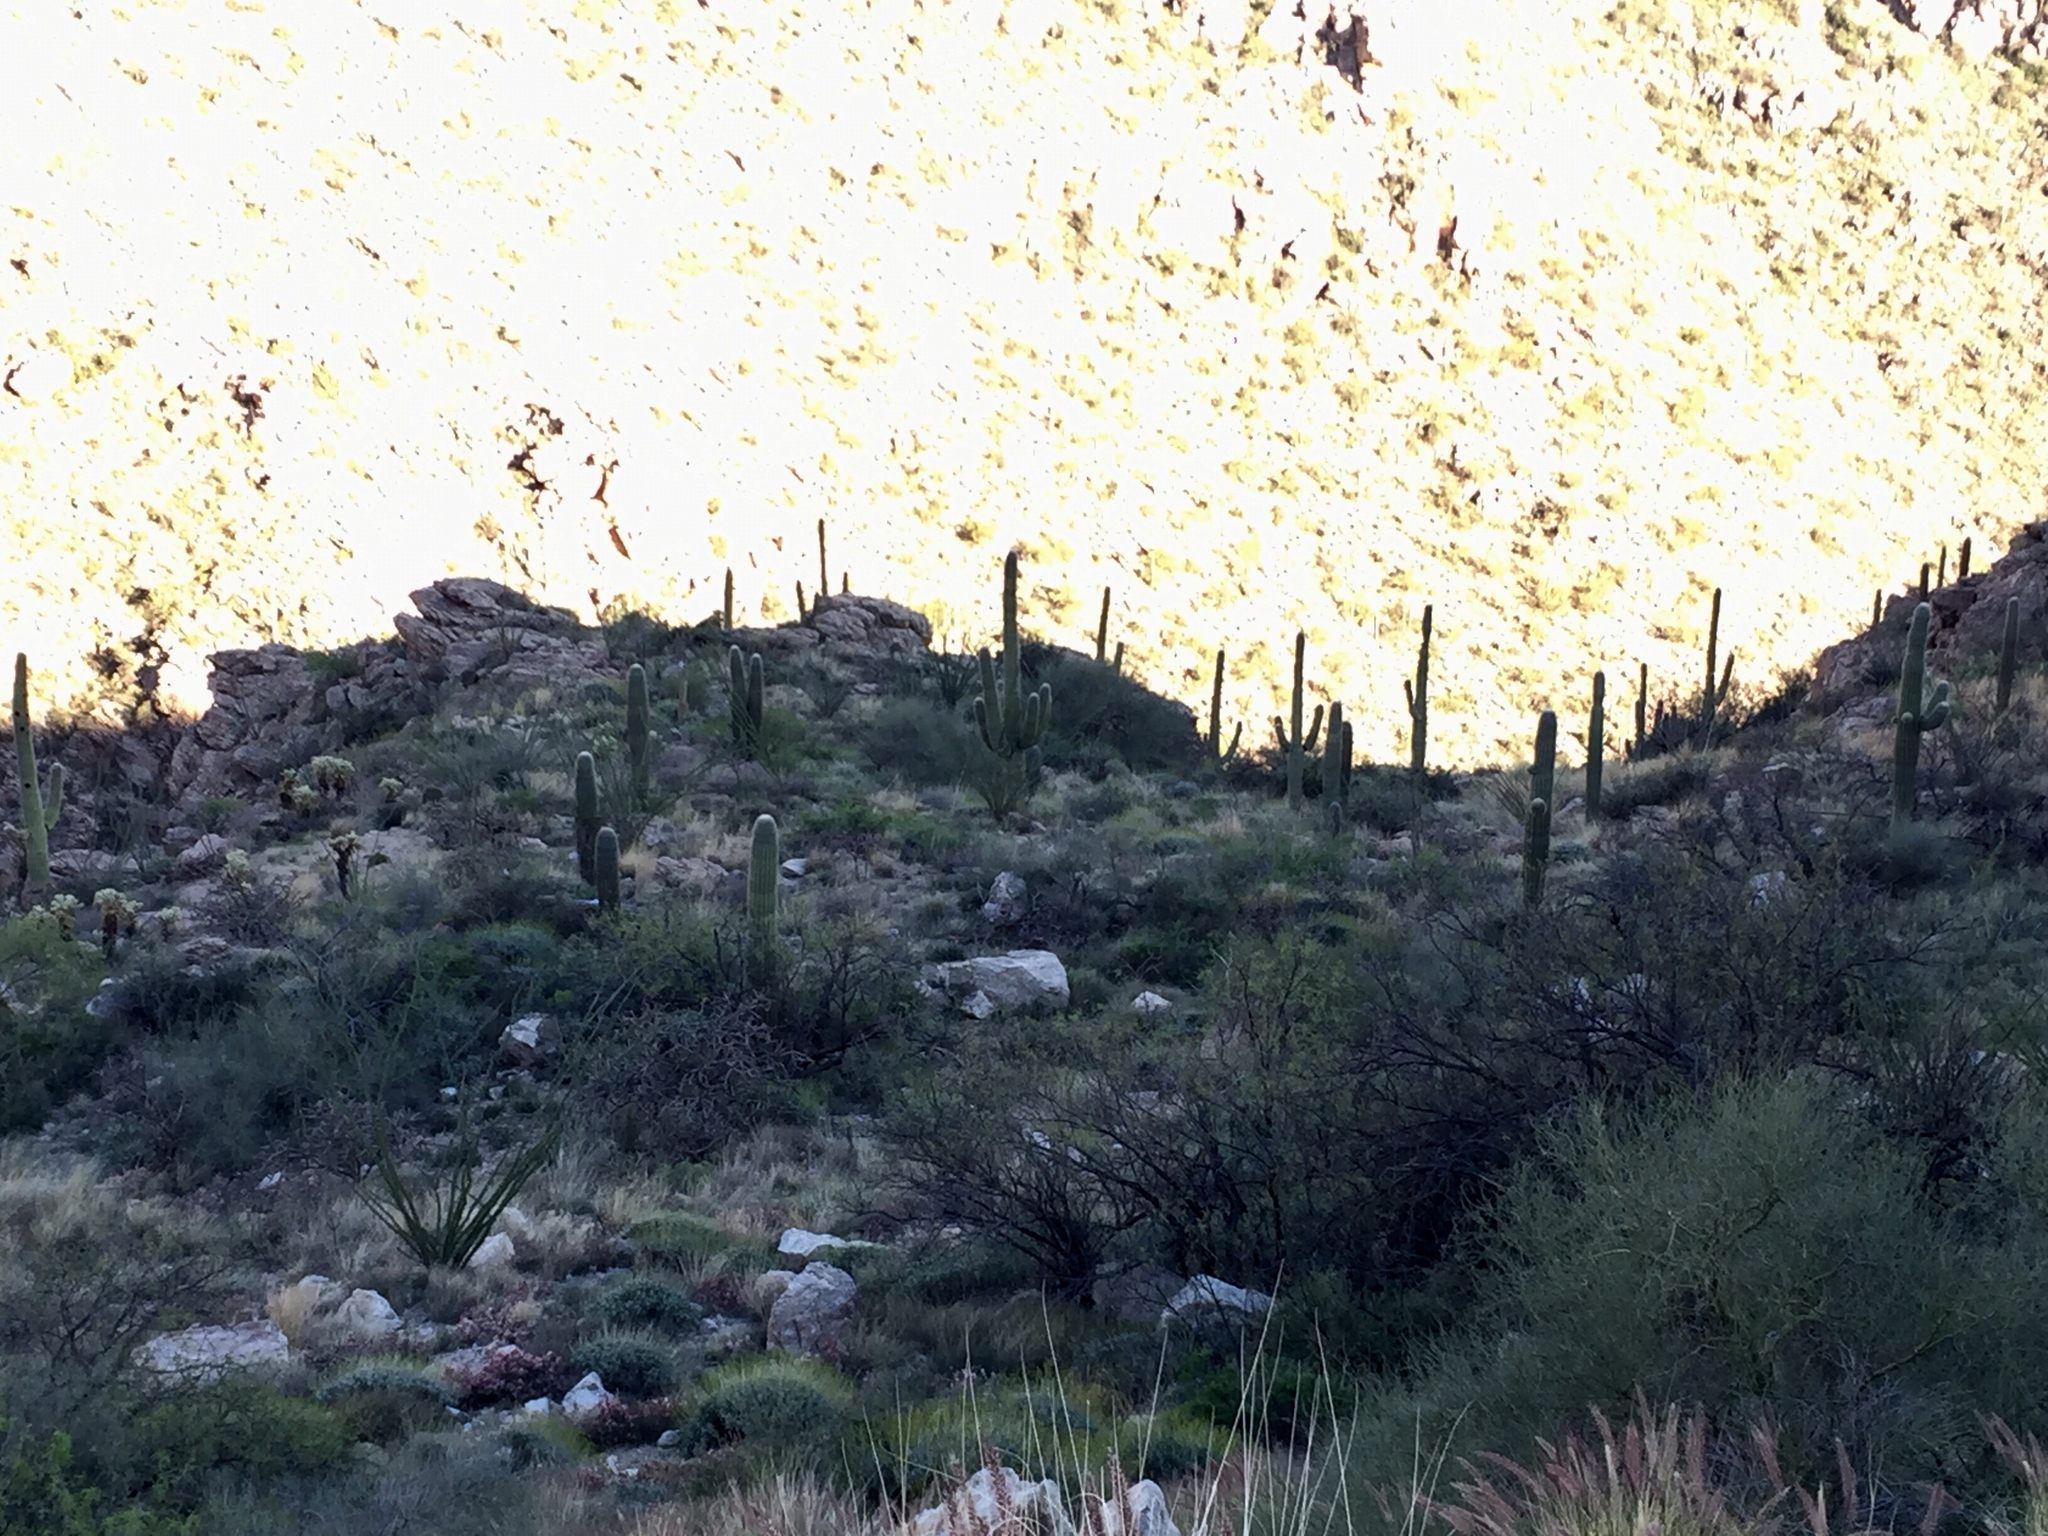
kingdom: Plantae
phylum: Tracheophyta
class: Magnoliopsida
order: Caryophyllales
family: Cactaceae
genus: Carnegiea
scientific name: Carnegiea gigantea
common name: Saguaro
